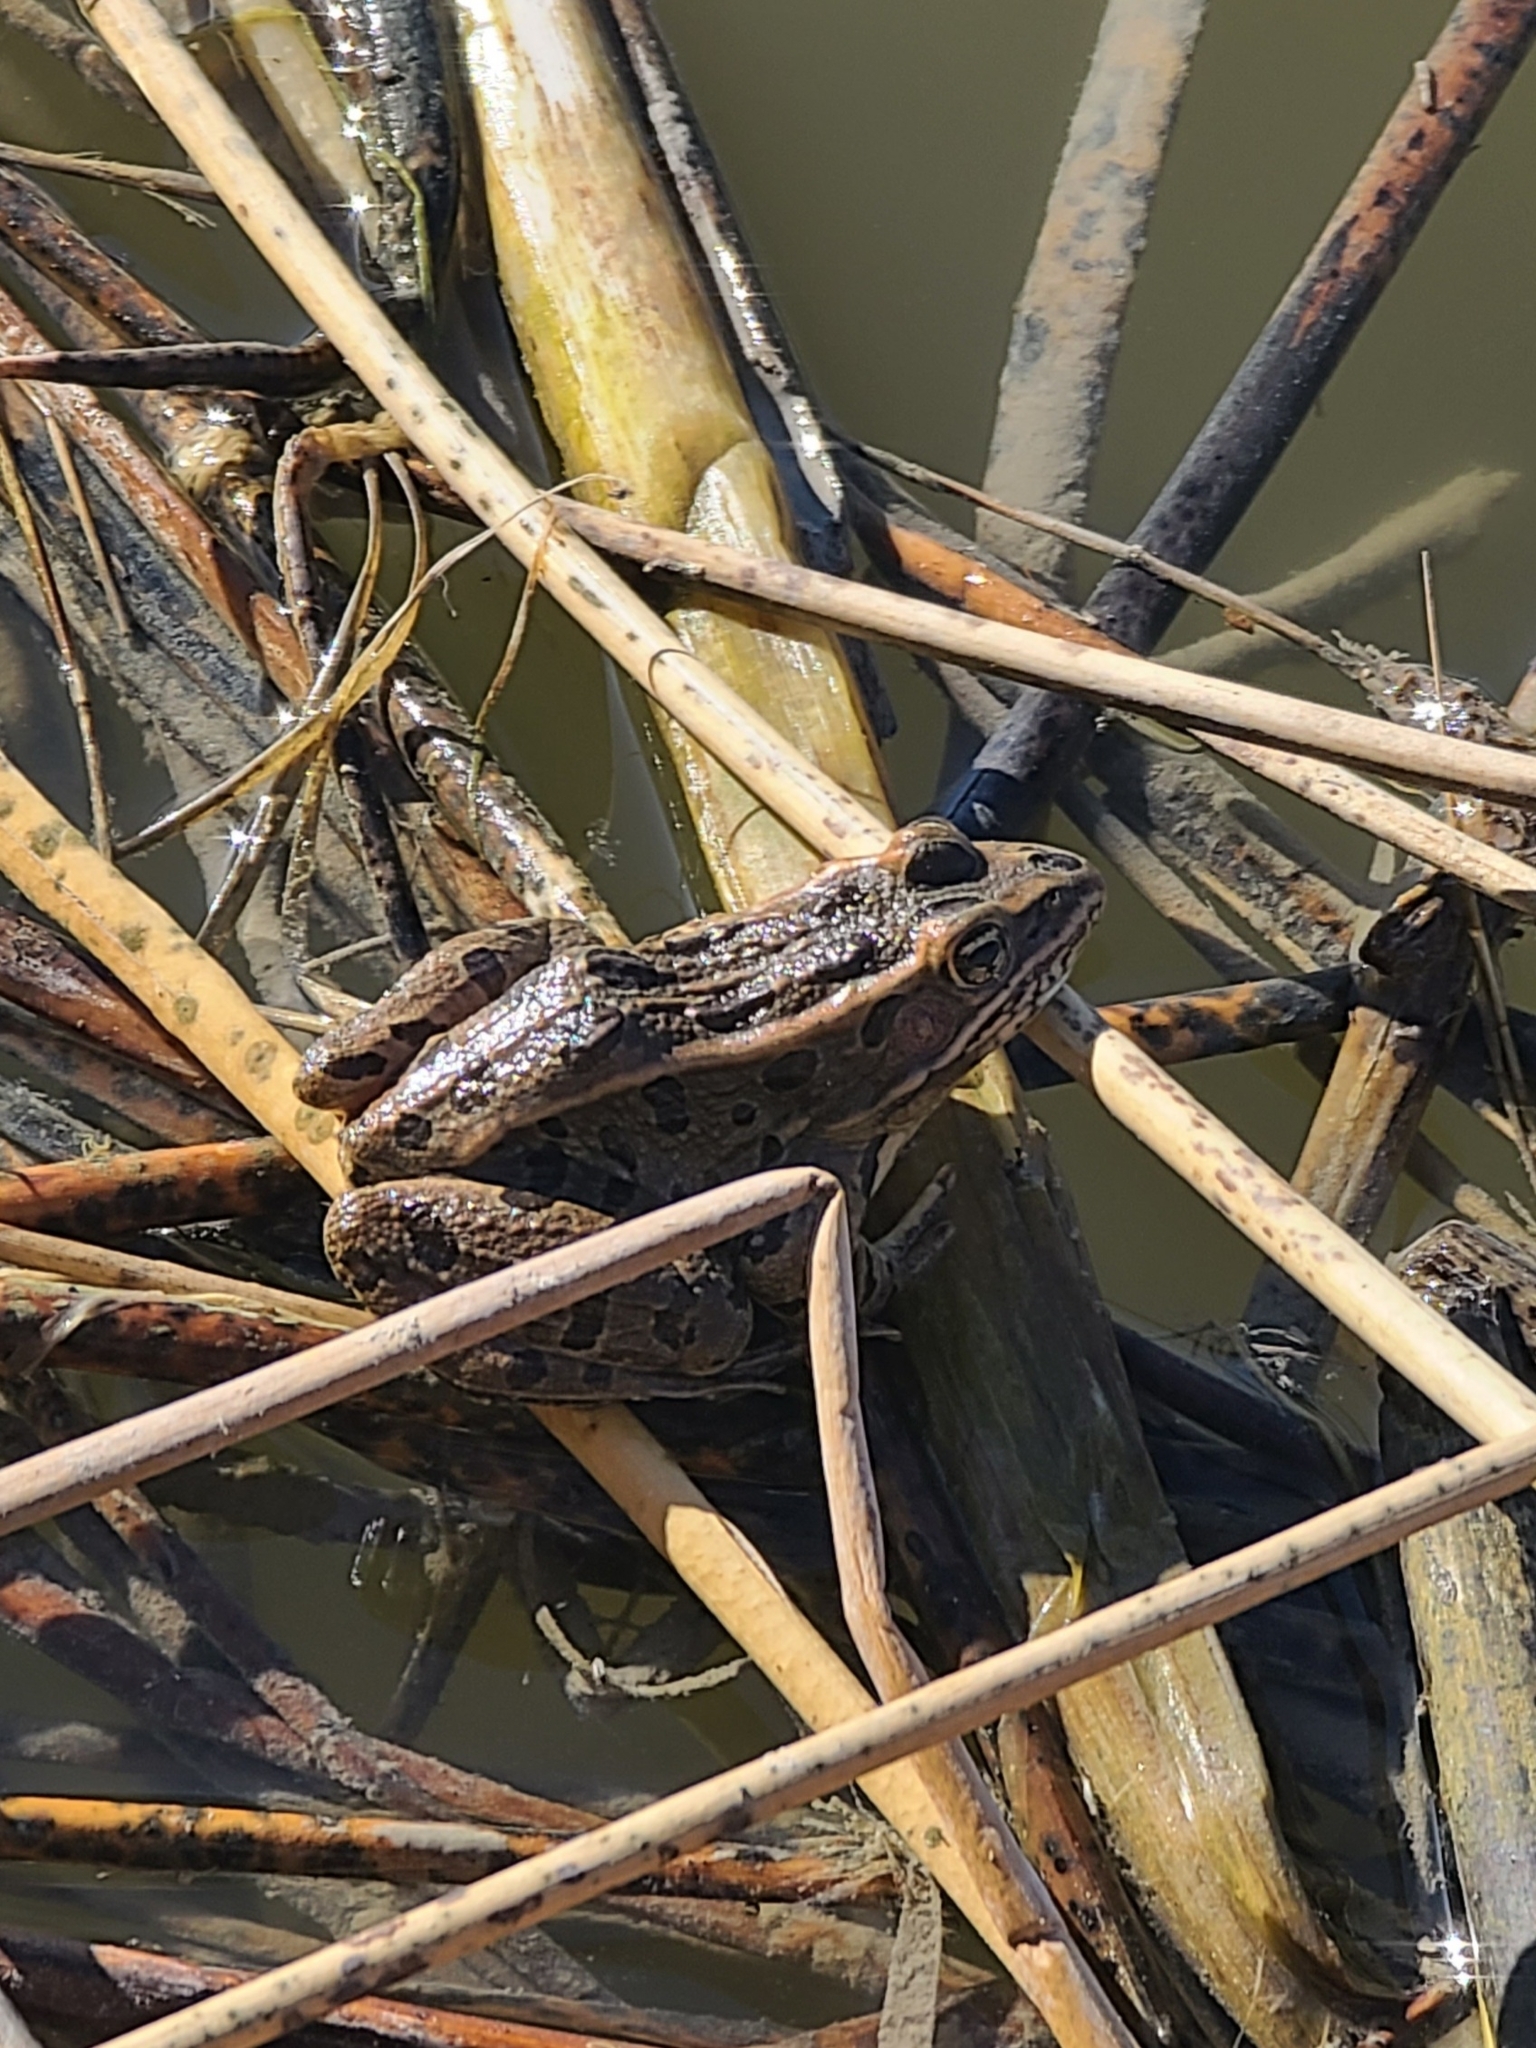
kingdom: Animalia
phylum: Chordata
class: Amphibia
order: Anura
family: Ranidae
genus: Lithobates
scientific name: Lithobates pipiens
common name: Northern leopard frog
